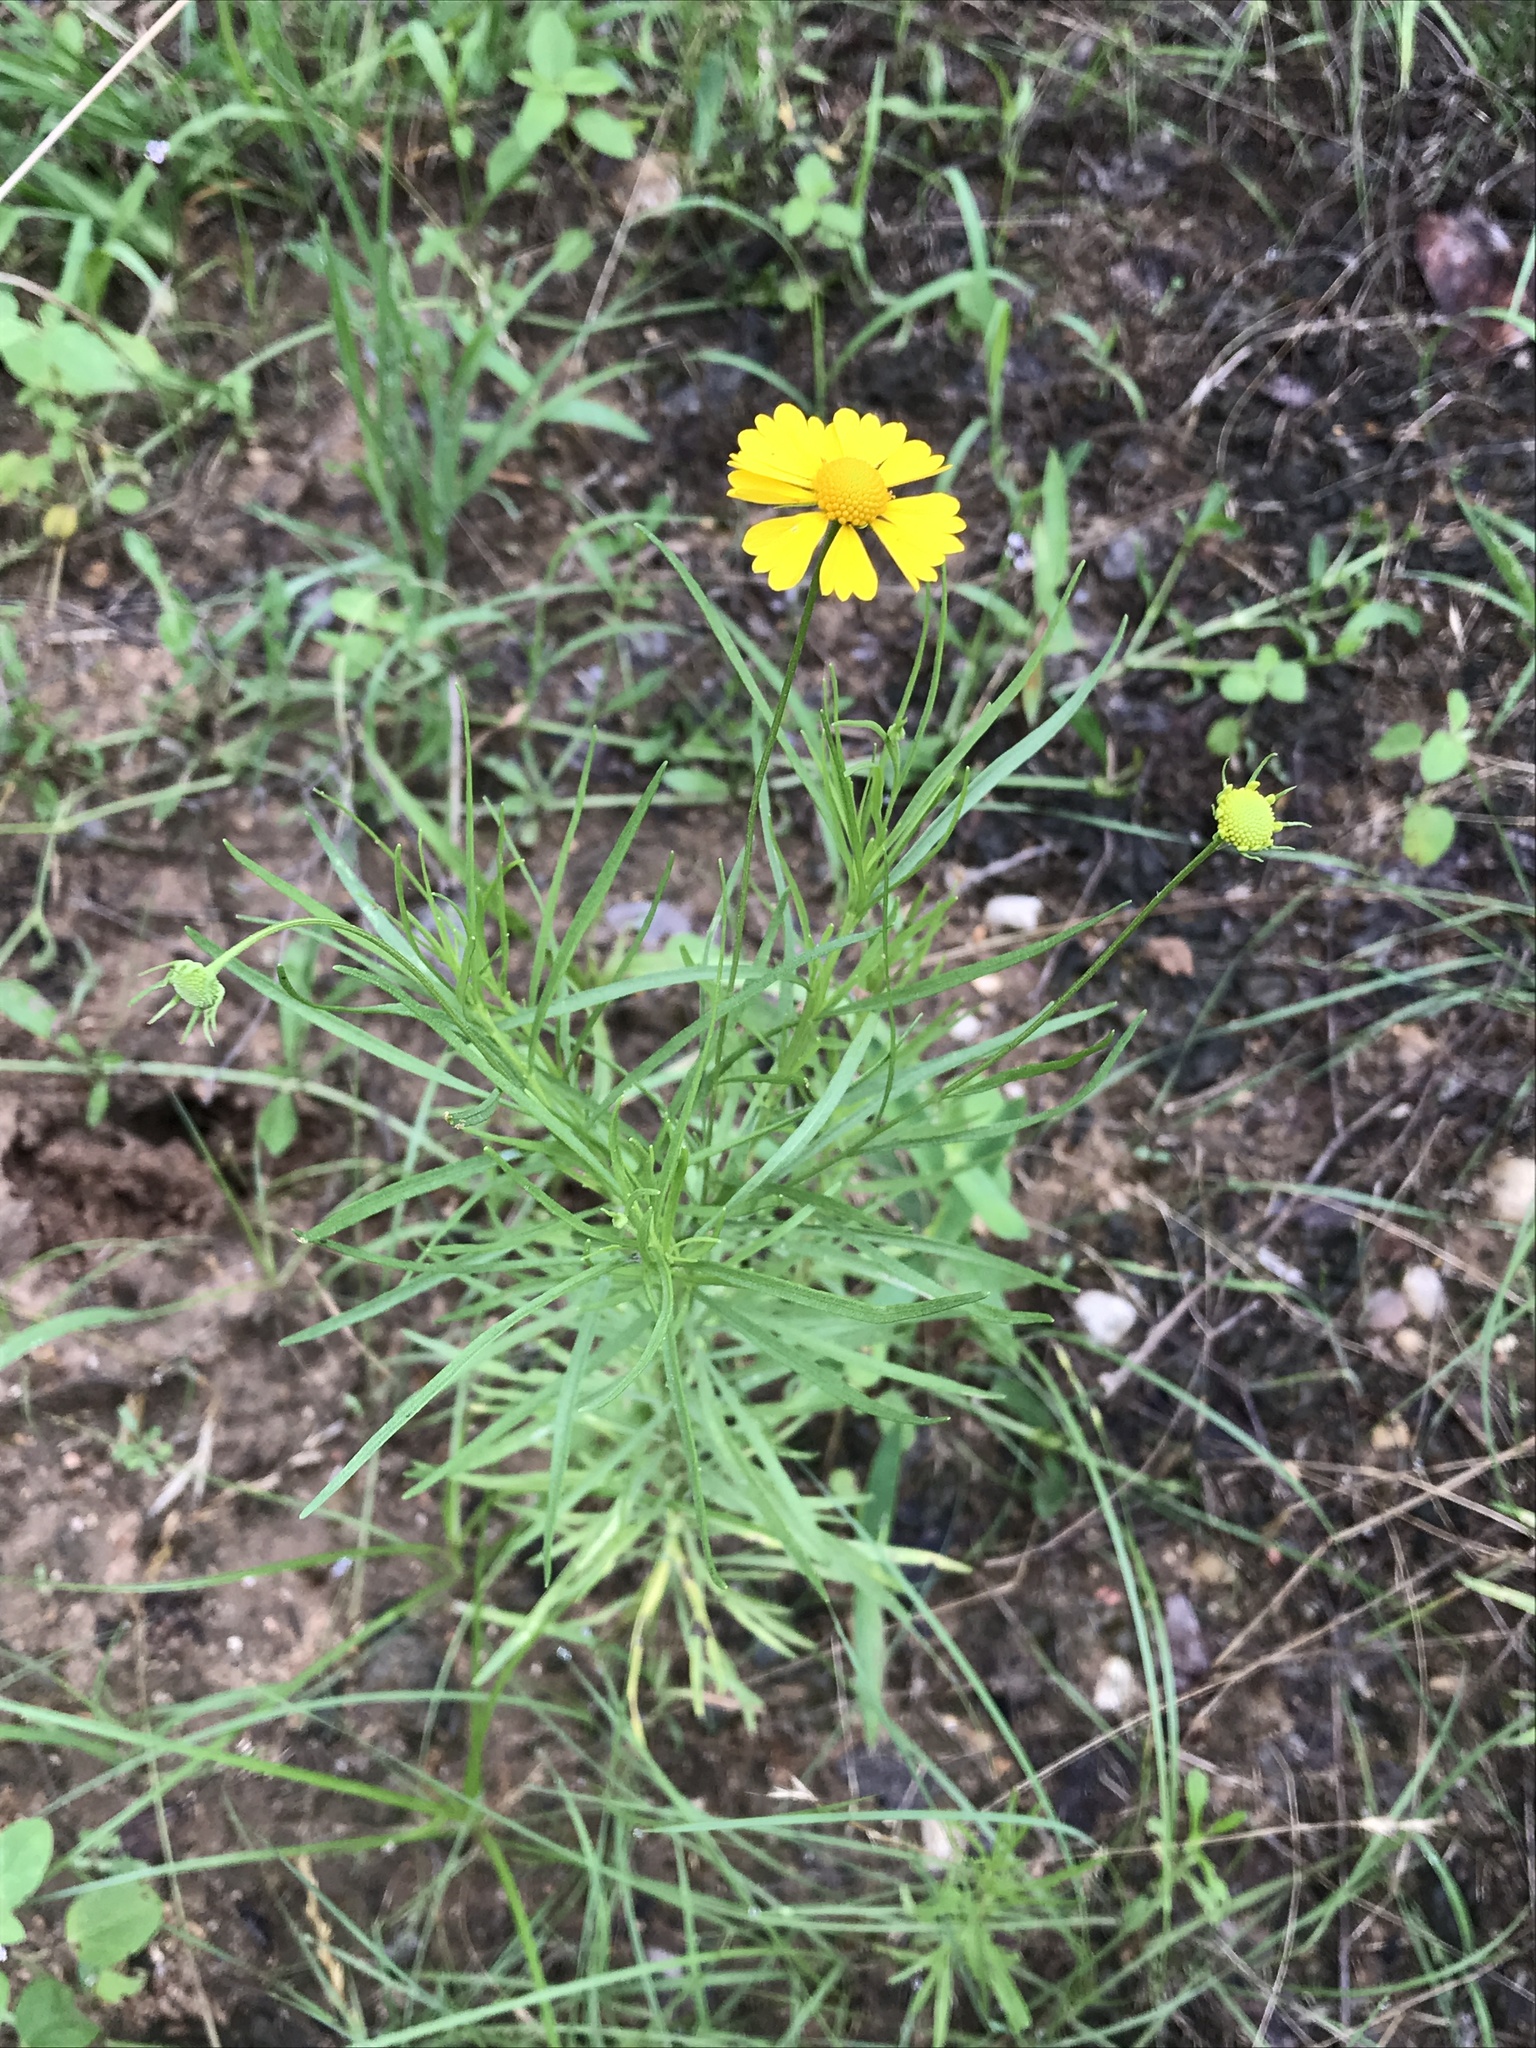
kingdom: Plantae
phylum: Tracheophyta
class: Magnoliopsida
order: Asterales
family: Asteraceae
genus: Helenium
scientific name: Helenium amarum
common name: Bitter sneezeweed
